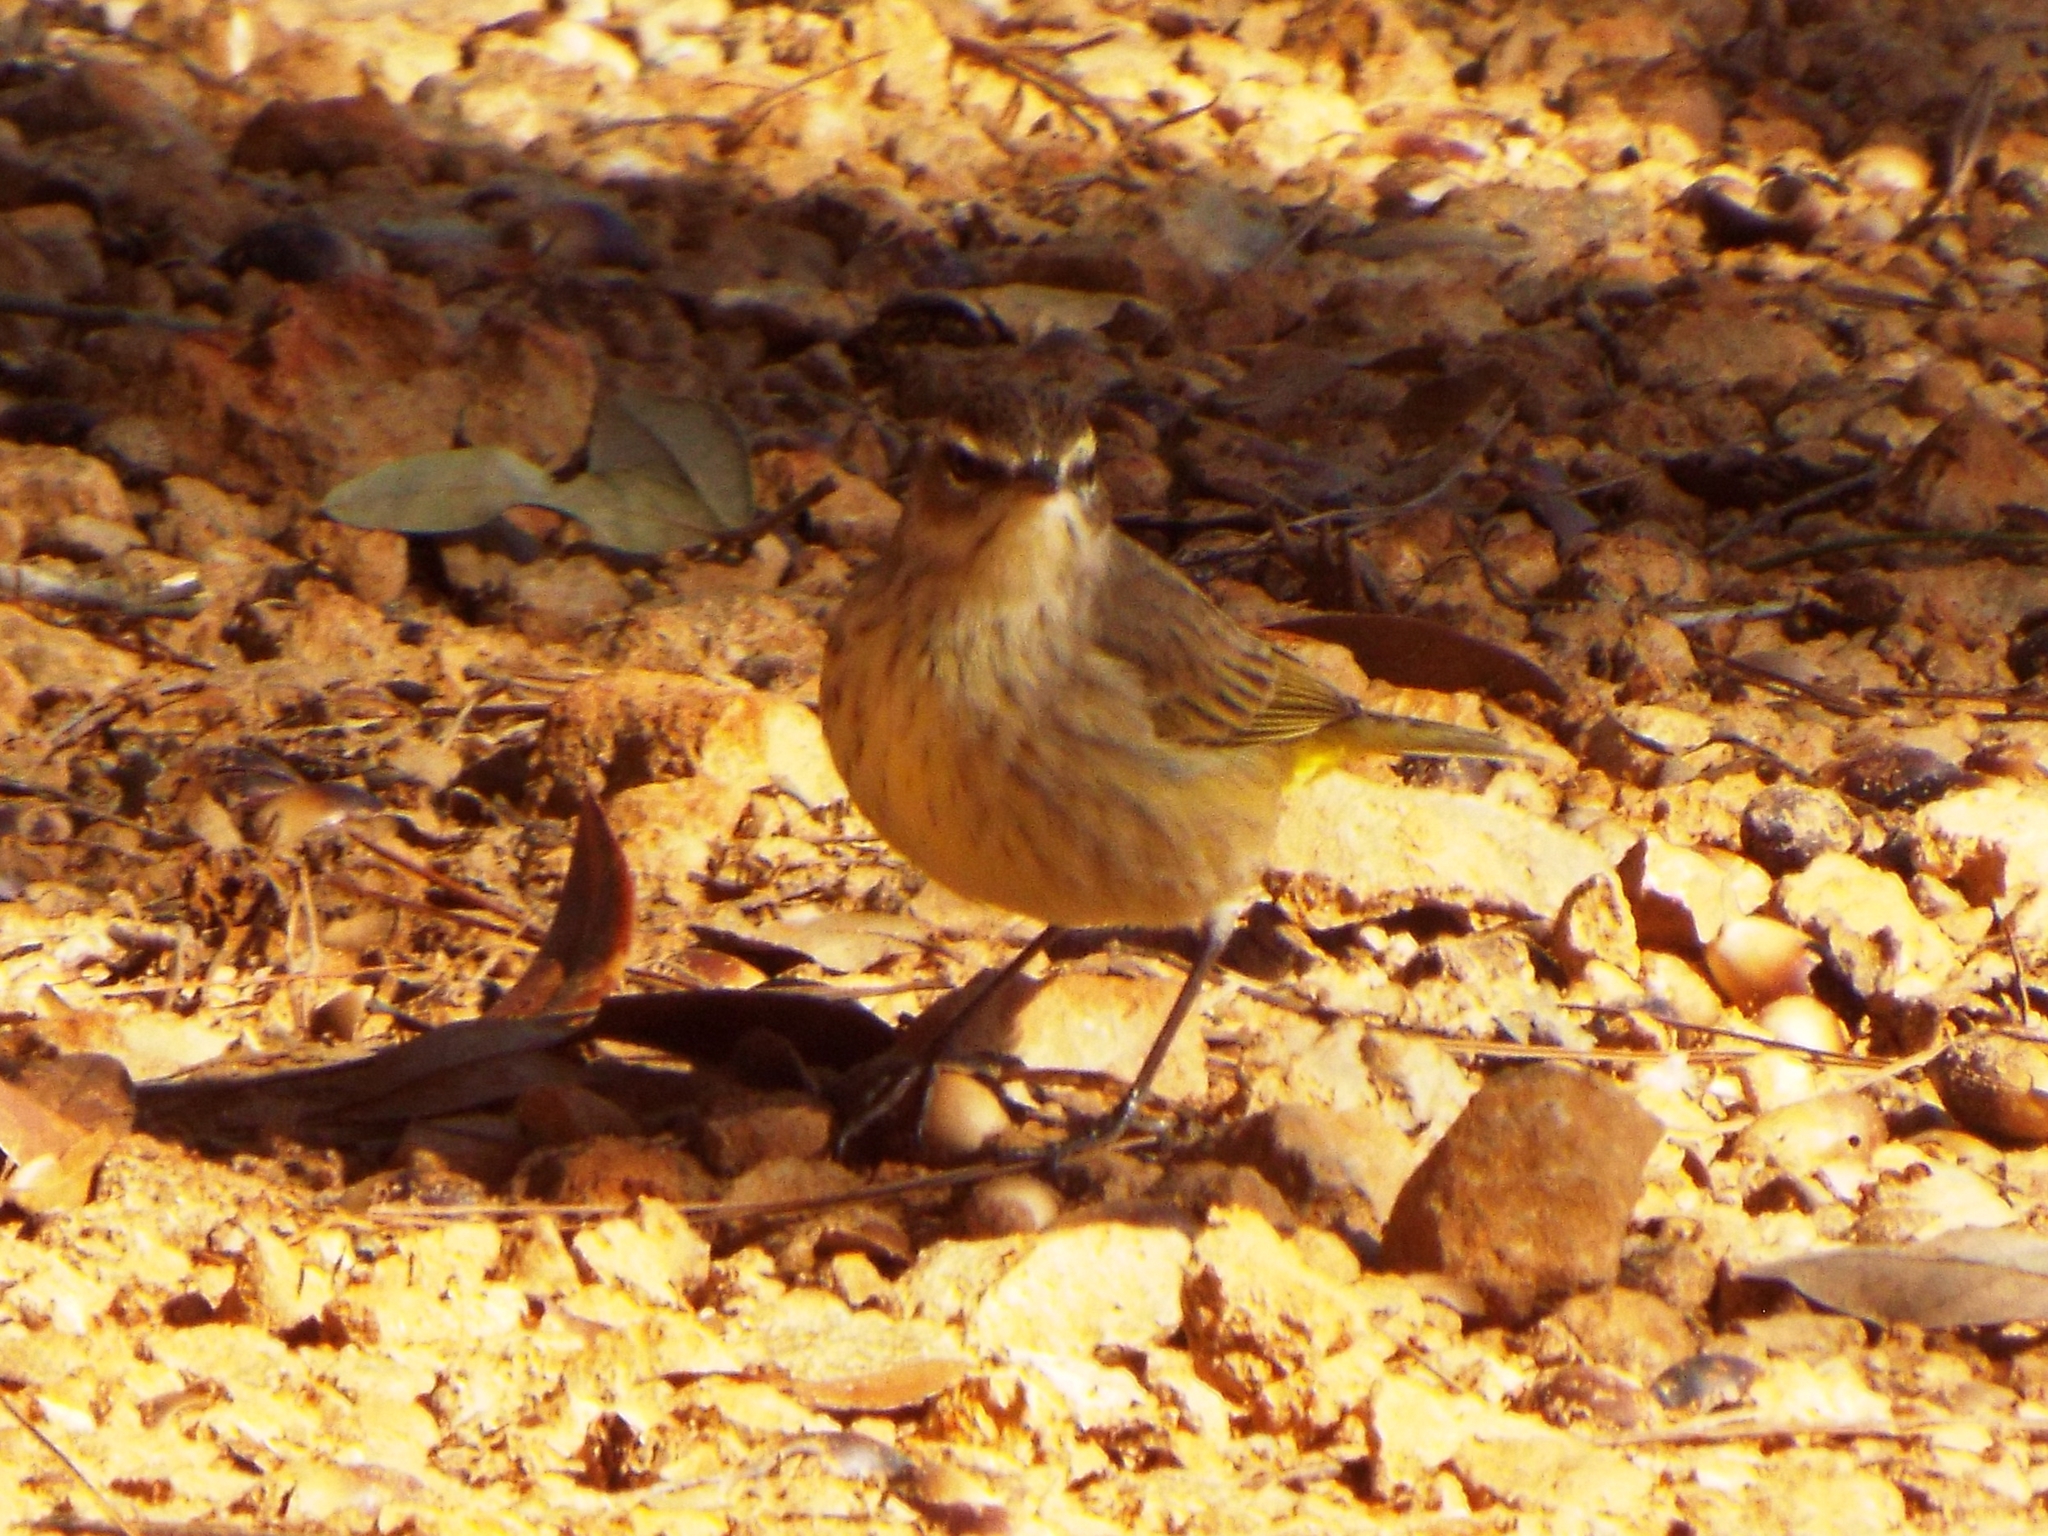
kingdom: Animalia
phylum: Chordata
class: Aves
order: Passeriformes
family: Parulidae
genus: Setophaga
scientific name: Setophaga palmarum
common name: Palm warbler
